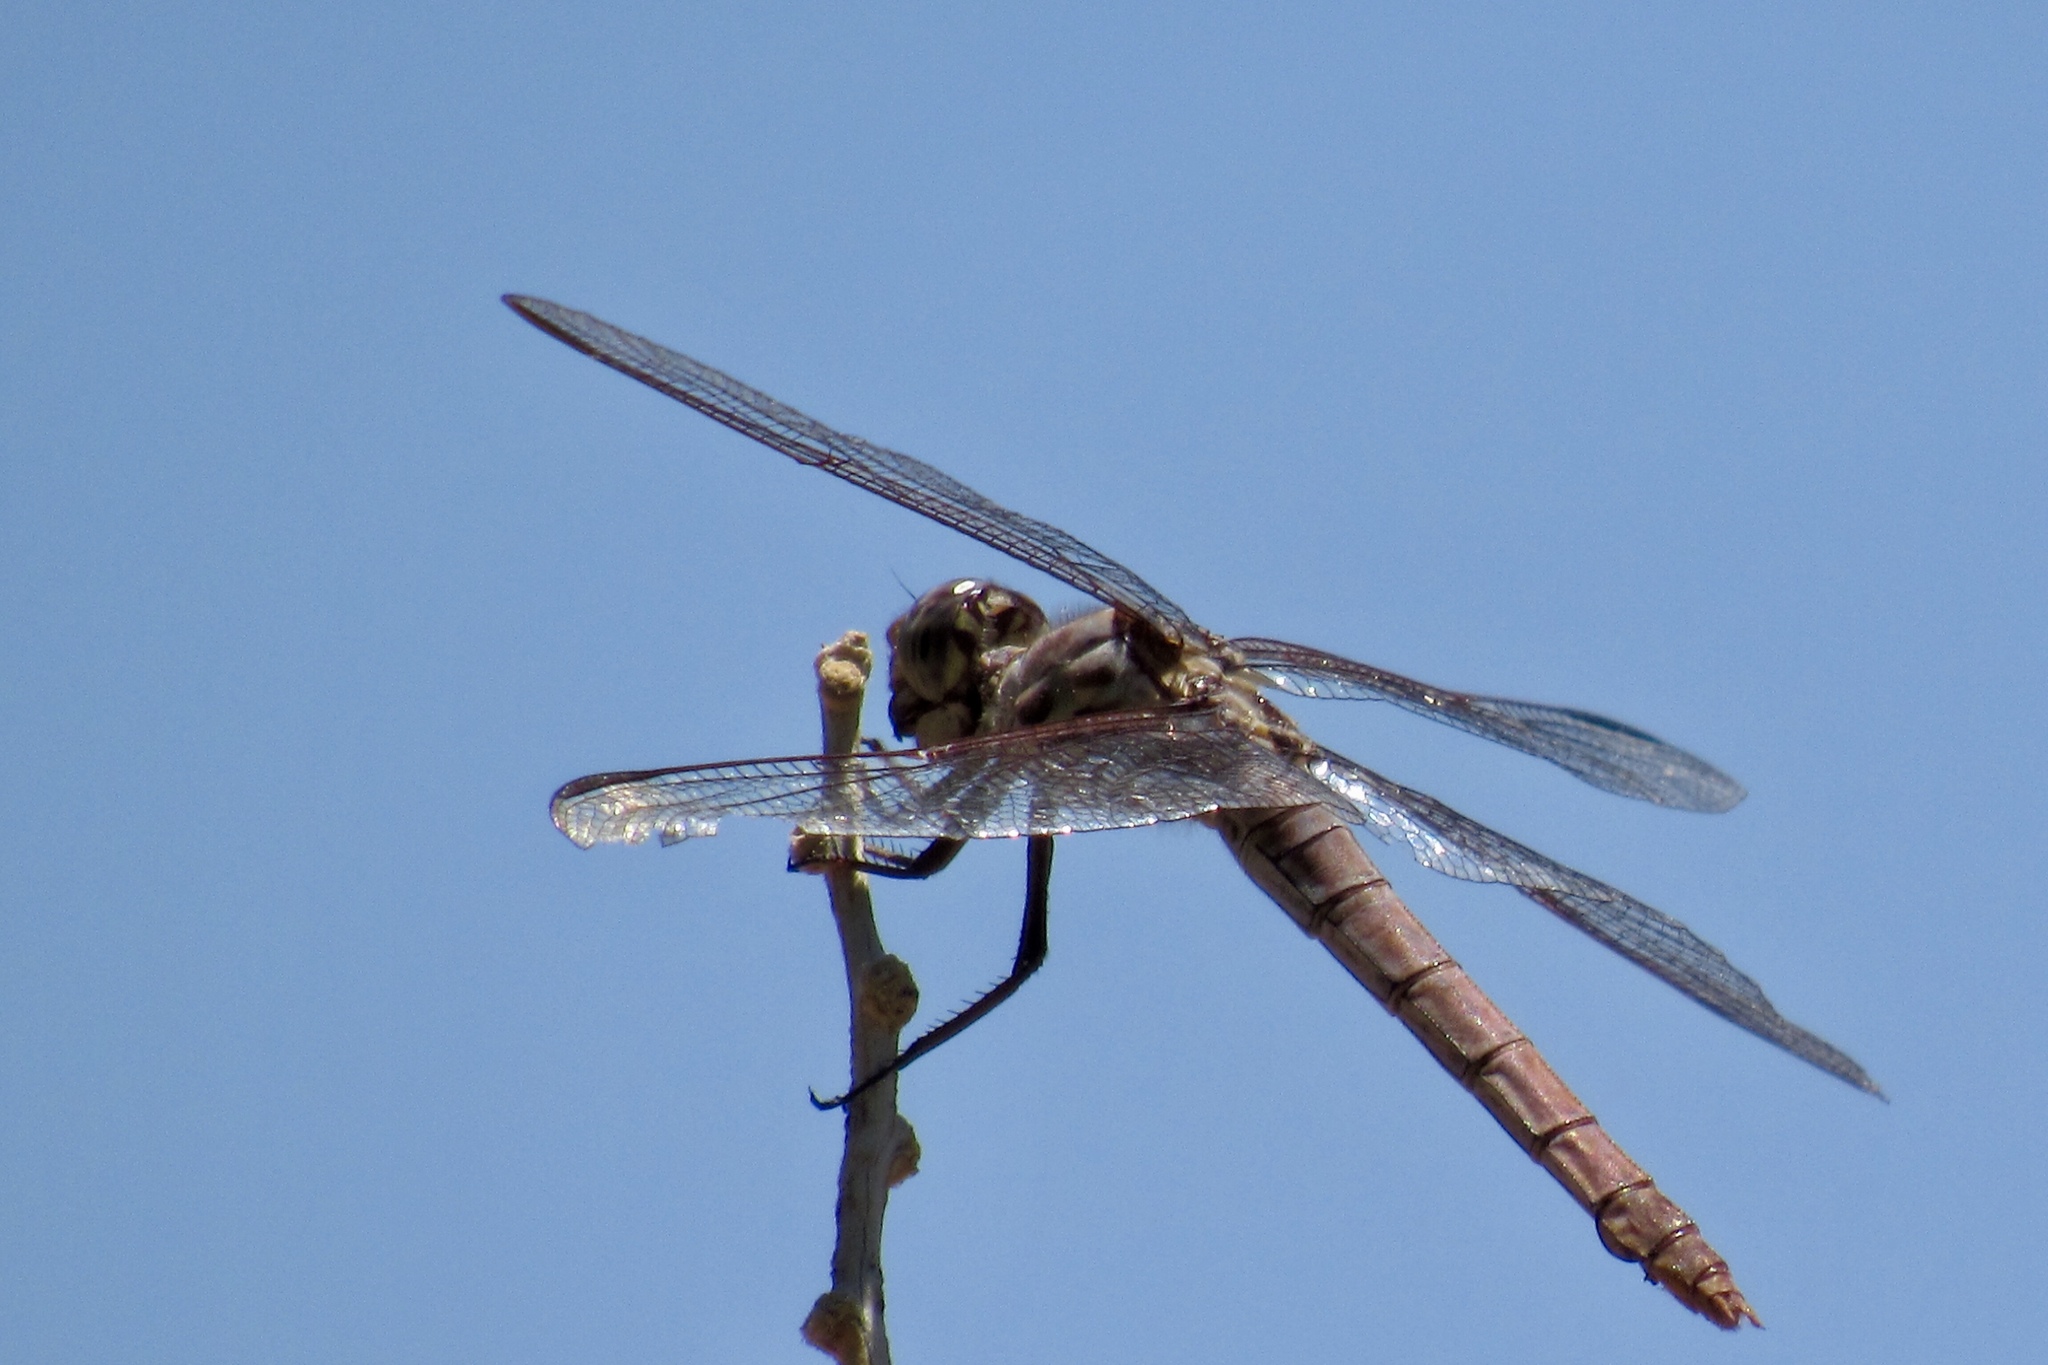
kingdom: Animalia
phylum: Arthropoda
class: Insecta
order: Odonata
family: Libellulidae
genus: Orthemis
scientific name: Orthemis ferruginea
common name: Roseate skimmer
